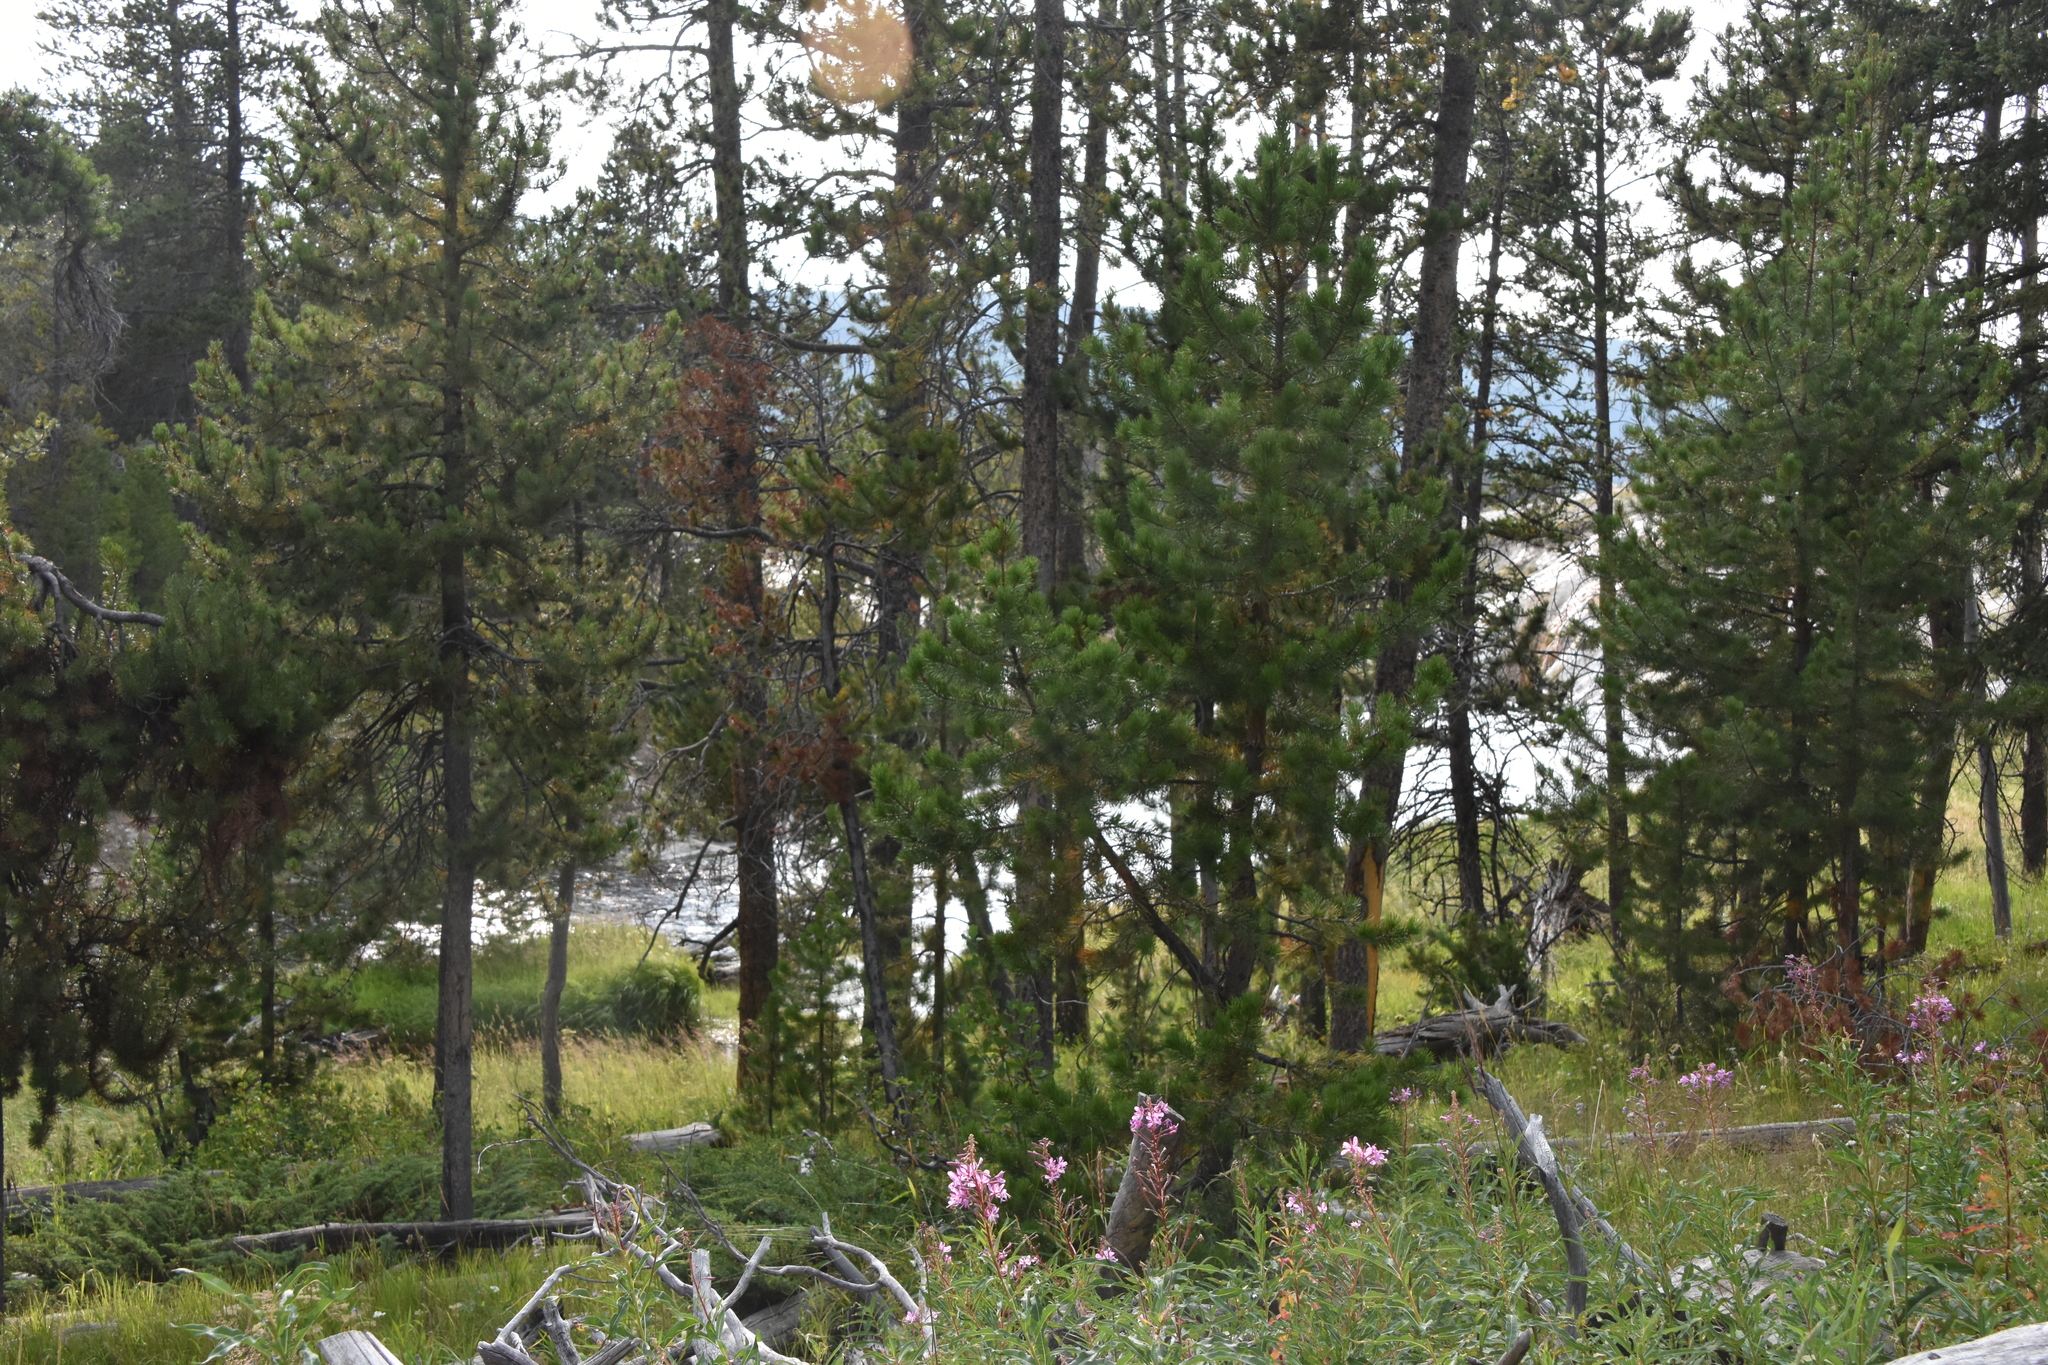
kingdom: Plantae
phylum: Tracheophyta
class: Pinopsida
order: Pinales
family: Pinaceae
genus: Pinus
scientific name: Pinus contorta
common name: Lodgepole pine
